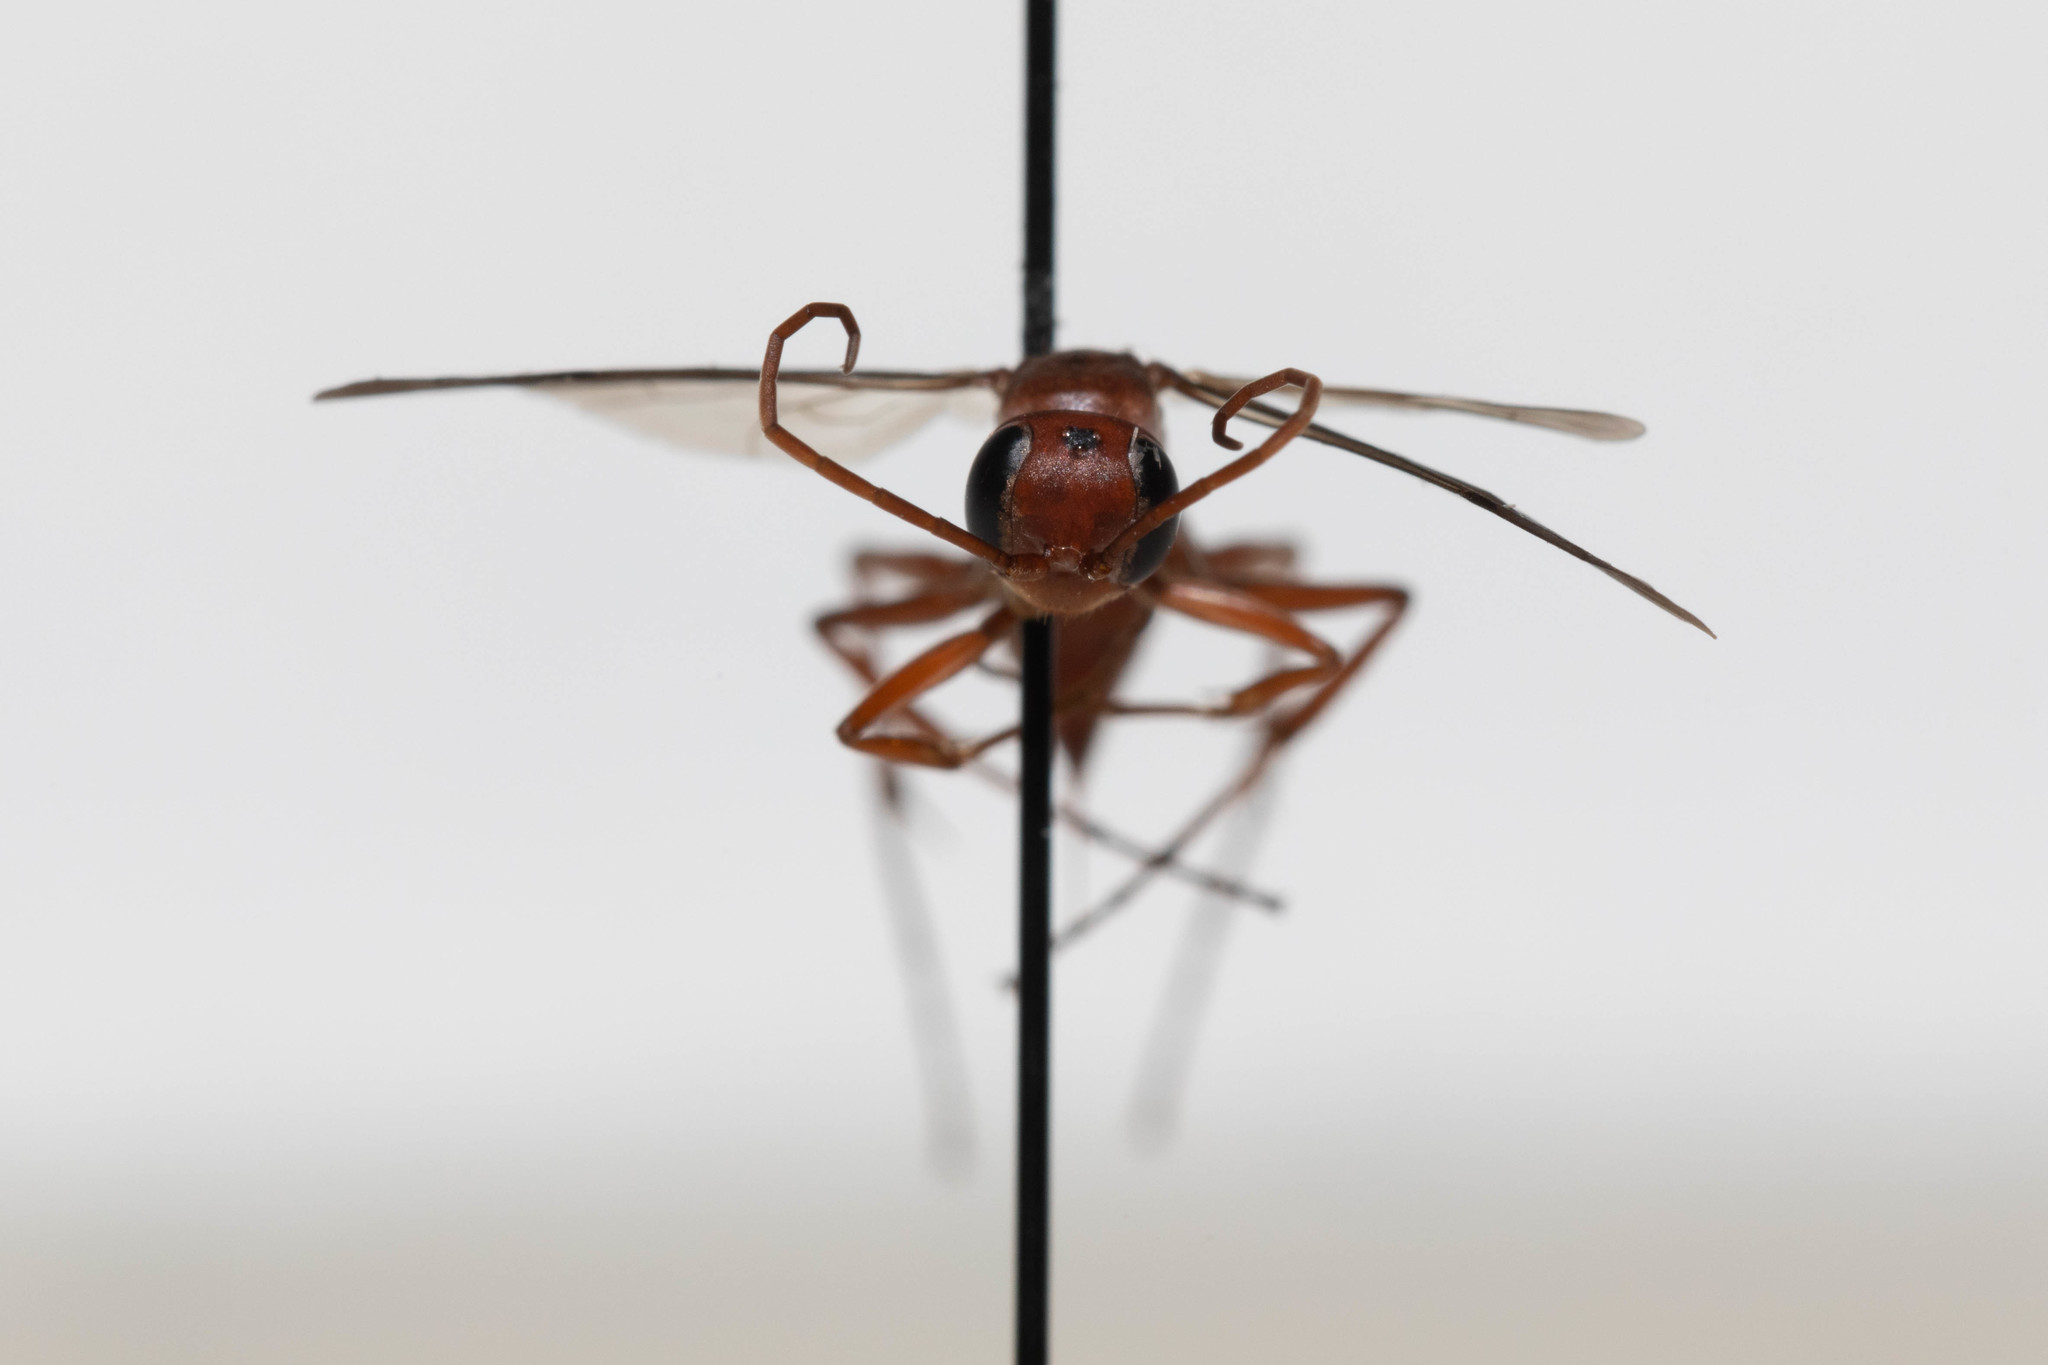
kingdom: Animalia
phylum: Arthropoda
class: Insecta
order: Hymenoptera
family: Pompilidae
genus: Ageniella
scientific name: Ageniella accepta
